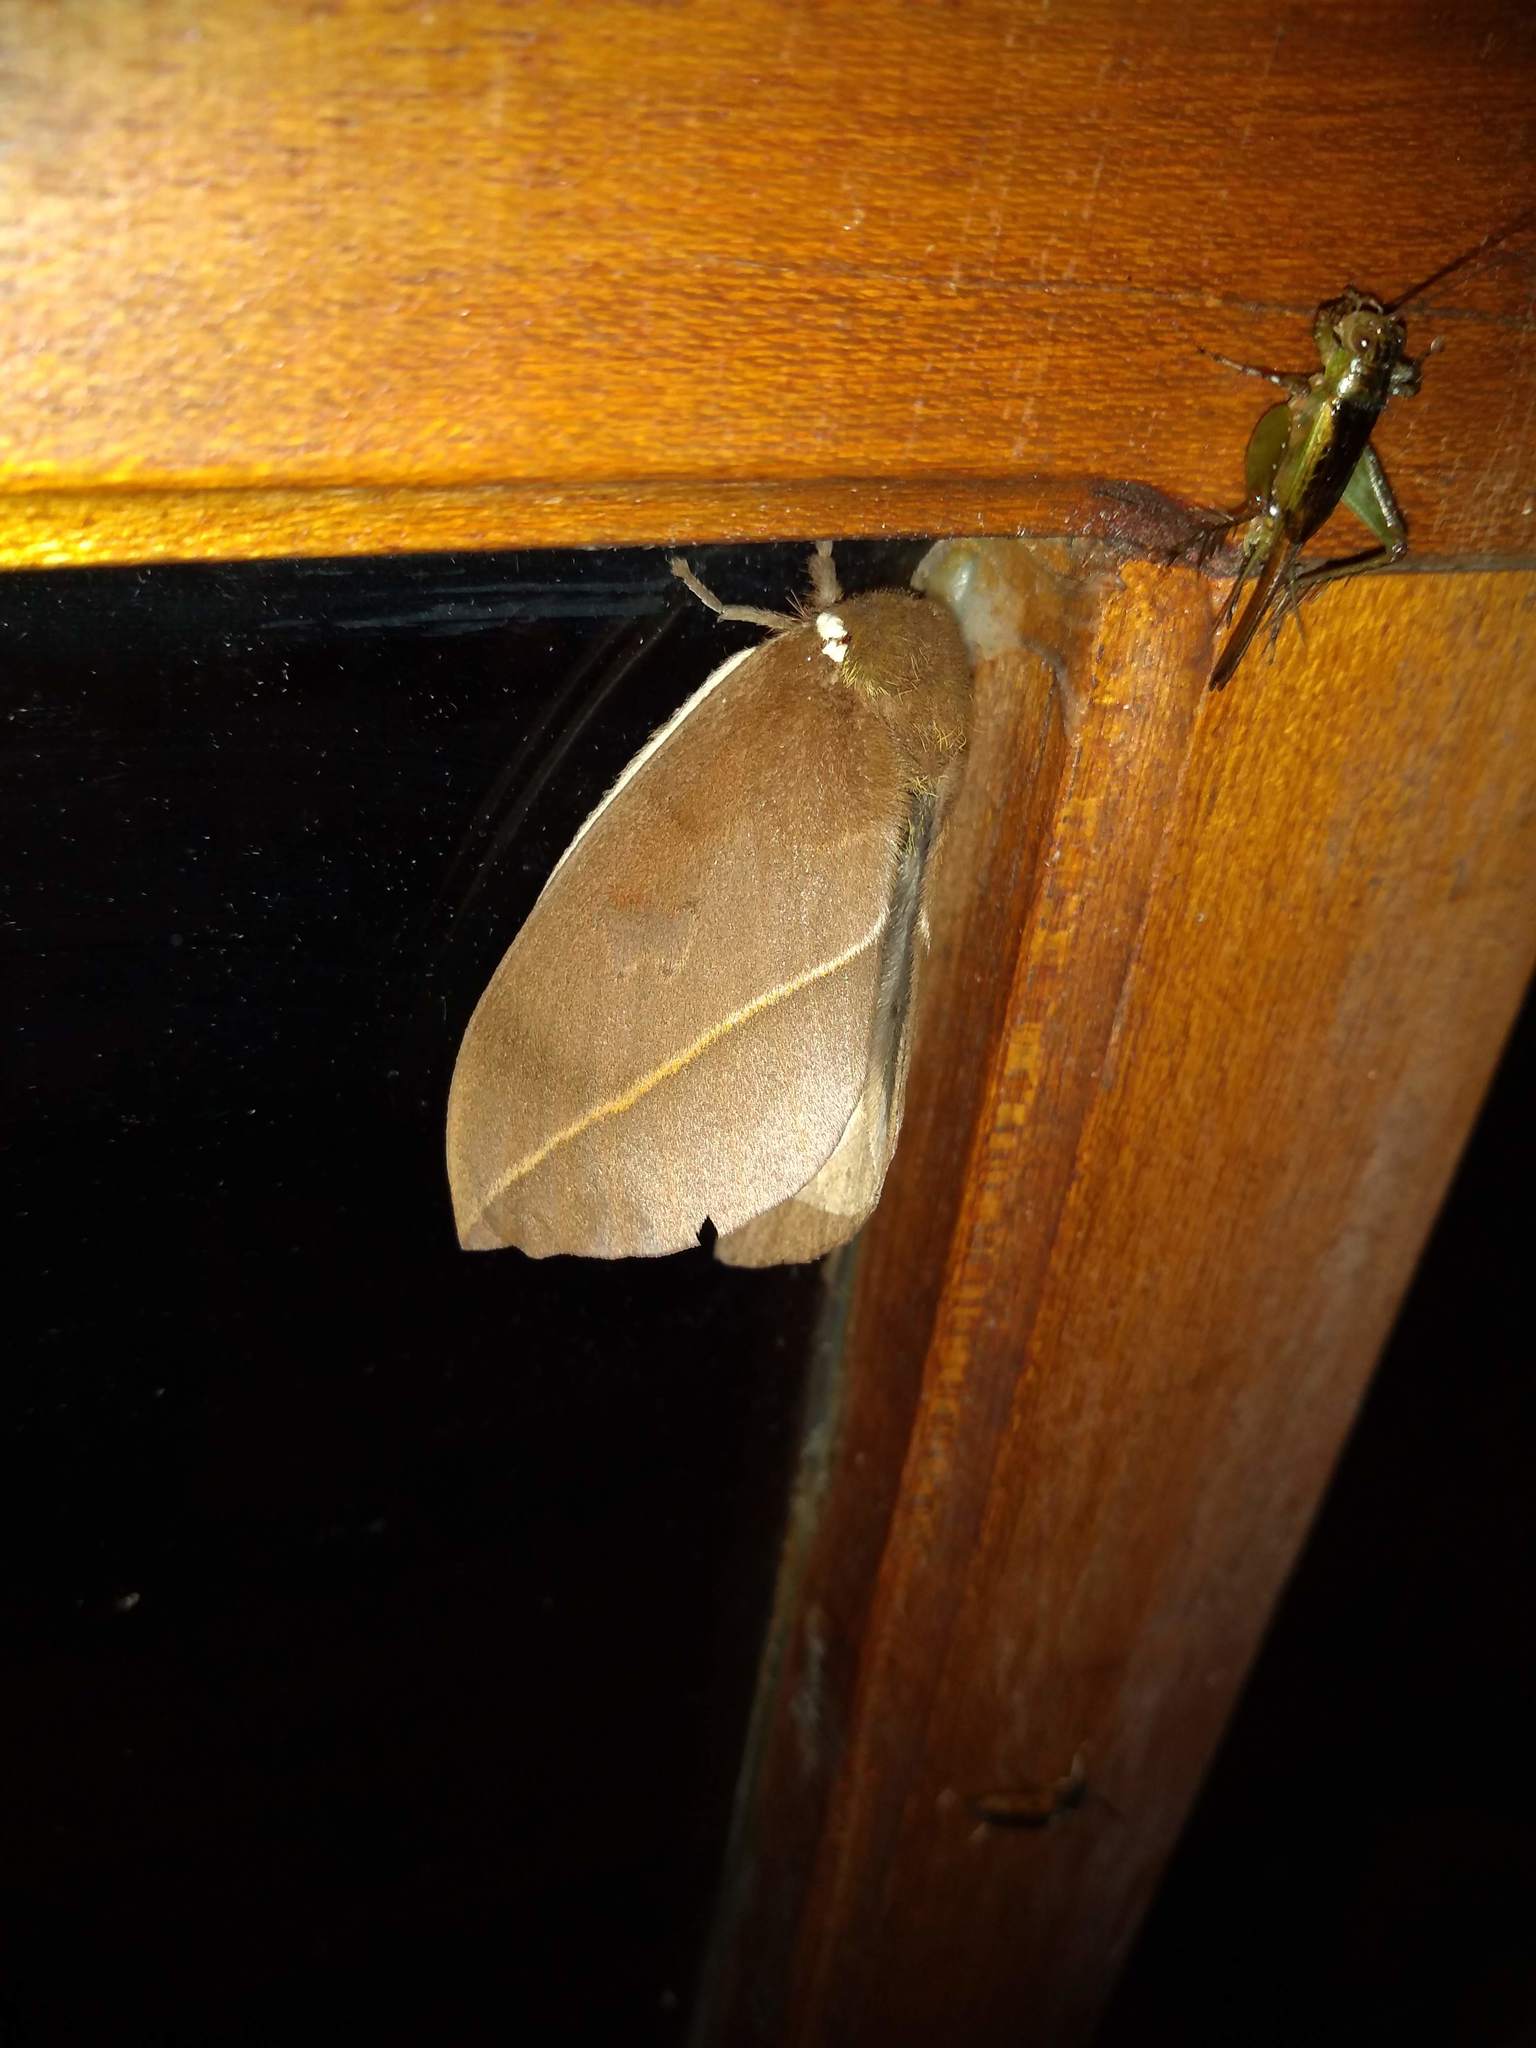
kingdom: Animalia
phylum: Arthropoda
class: Insecta
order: Lepidoptera
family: Saturniidae
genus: Automeris
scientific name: Automeris naranja
